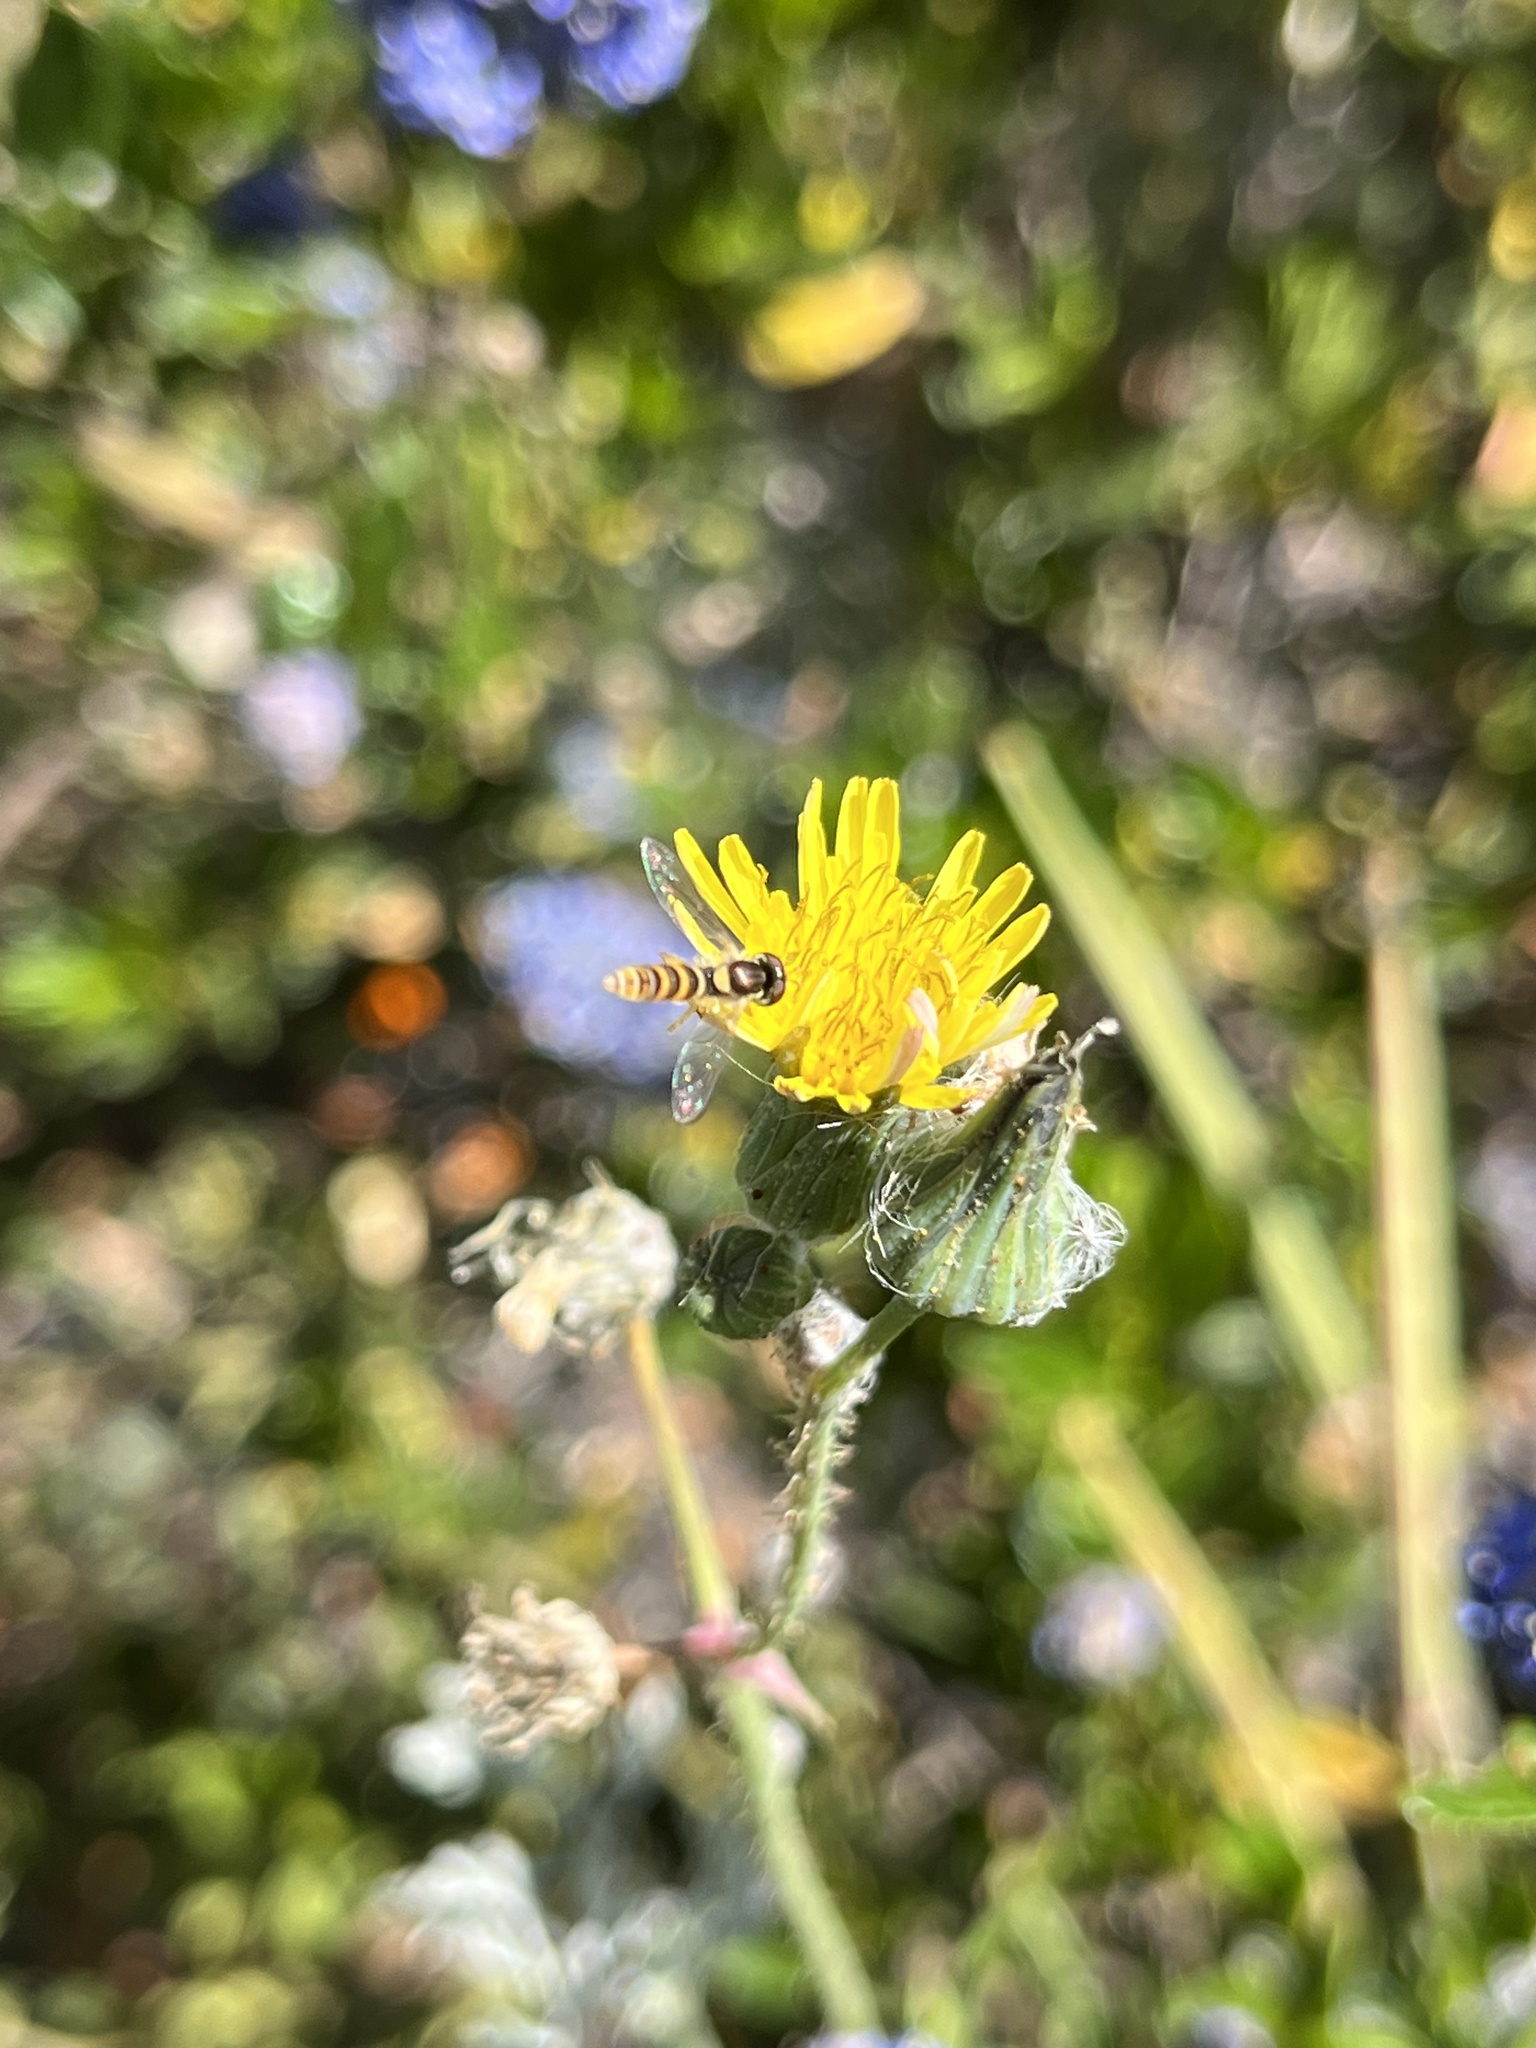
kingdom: Animalia
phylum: Arthropoda
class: Insecta
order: Diptera
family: Syrphidae
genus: Sphaerophoria
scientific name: Sphaerophoria contigua
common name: Tufted globetail
